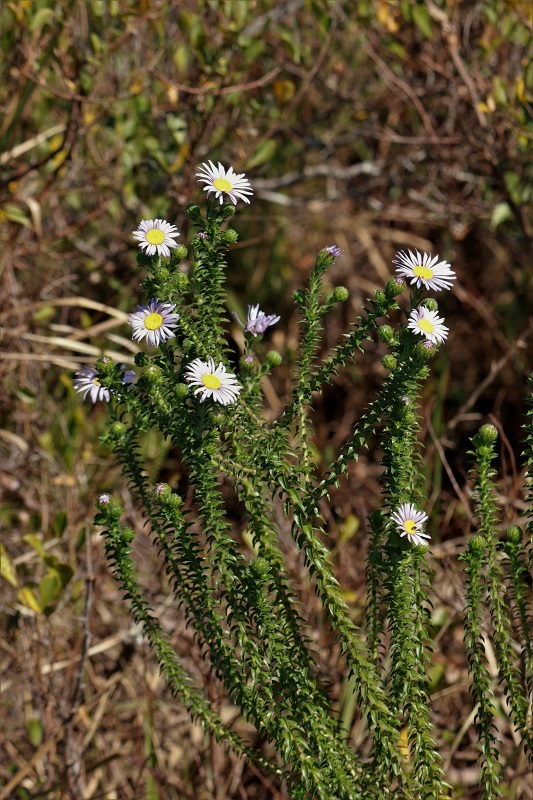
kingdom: Plantae
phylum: Tracheophyta
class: Magnoliopsida
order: Asterales
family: Asteraceae
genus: Felicia
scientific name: Felicia echinata
